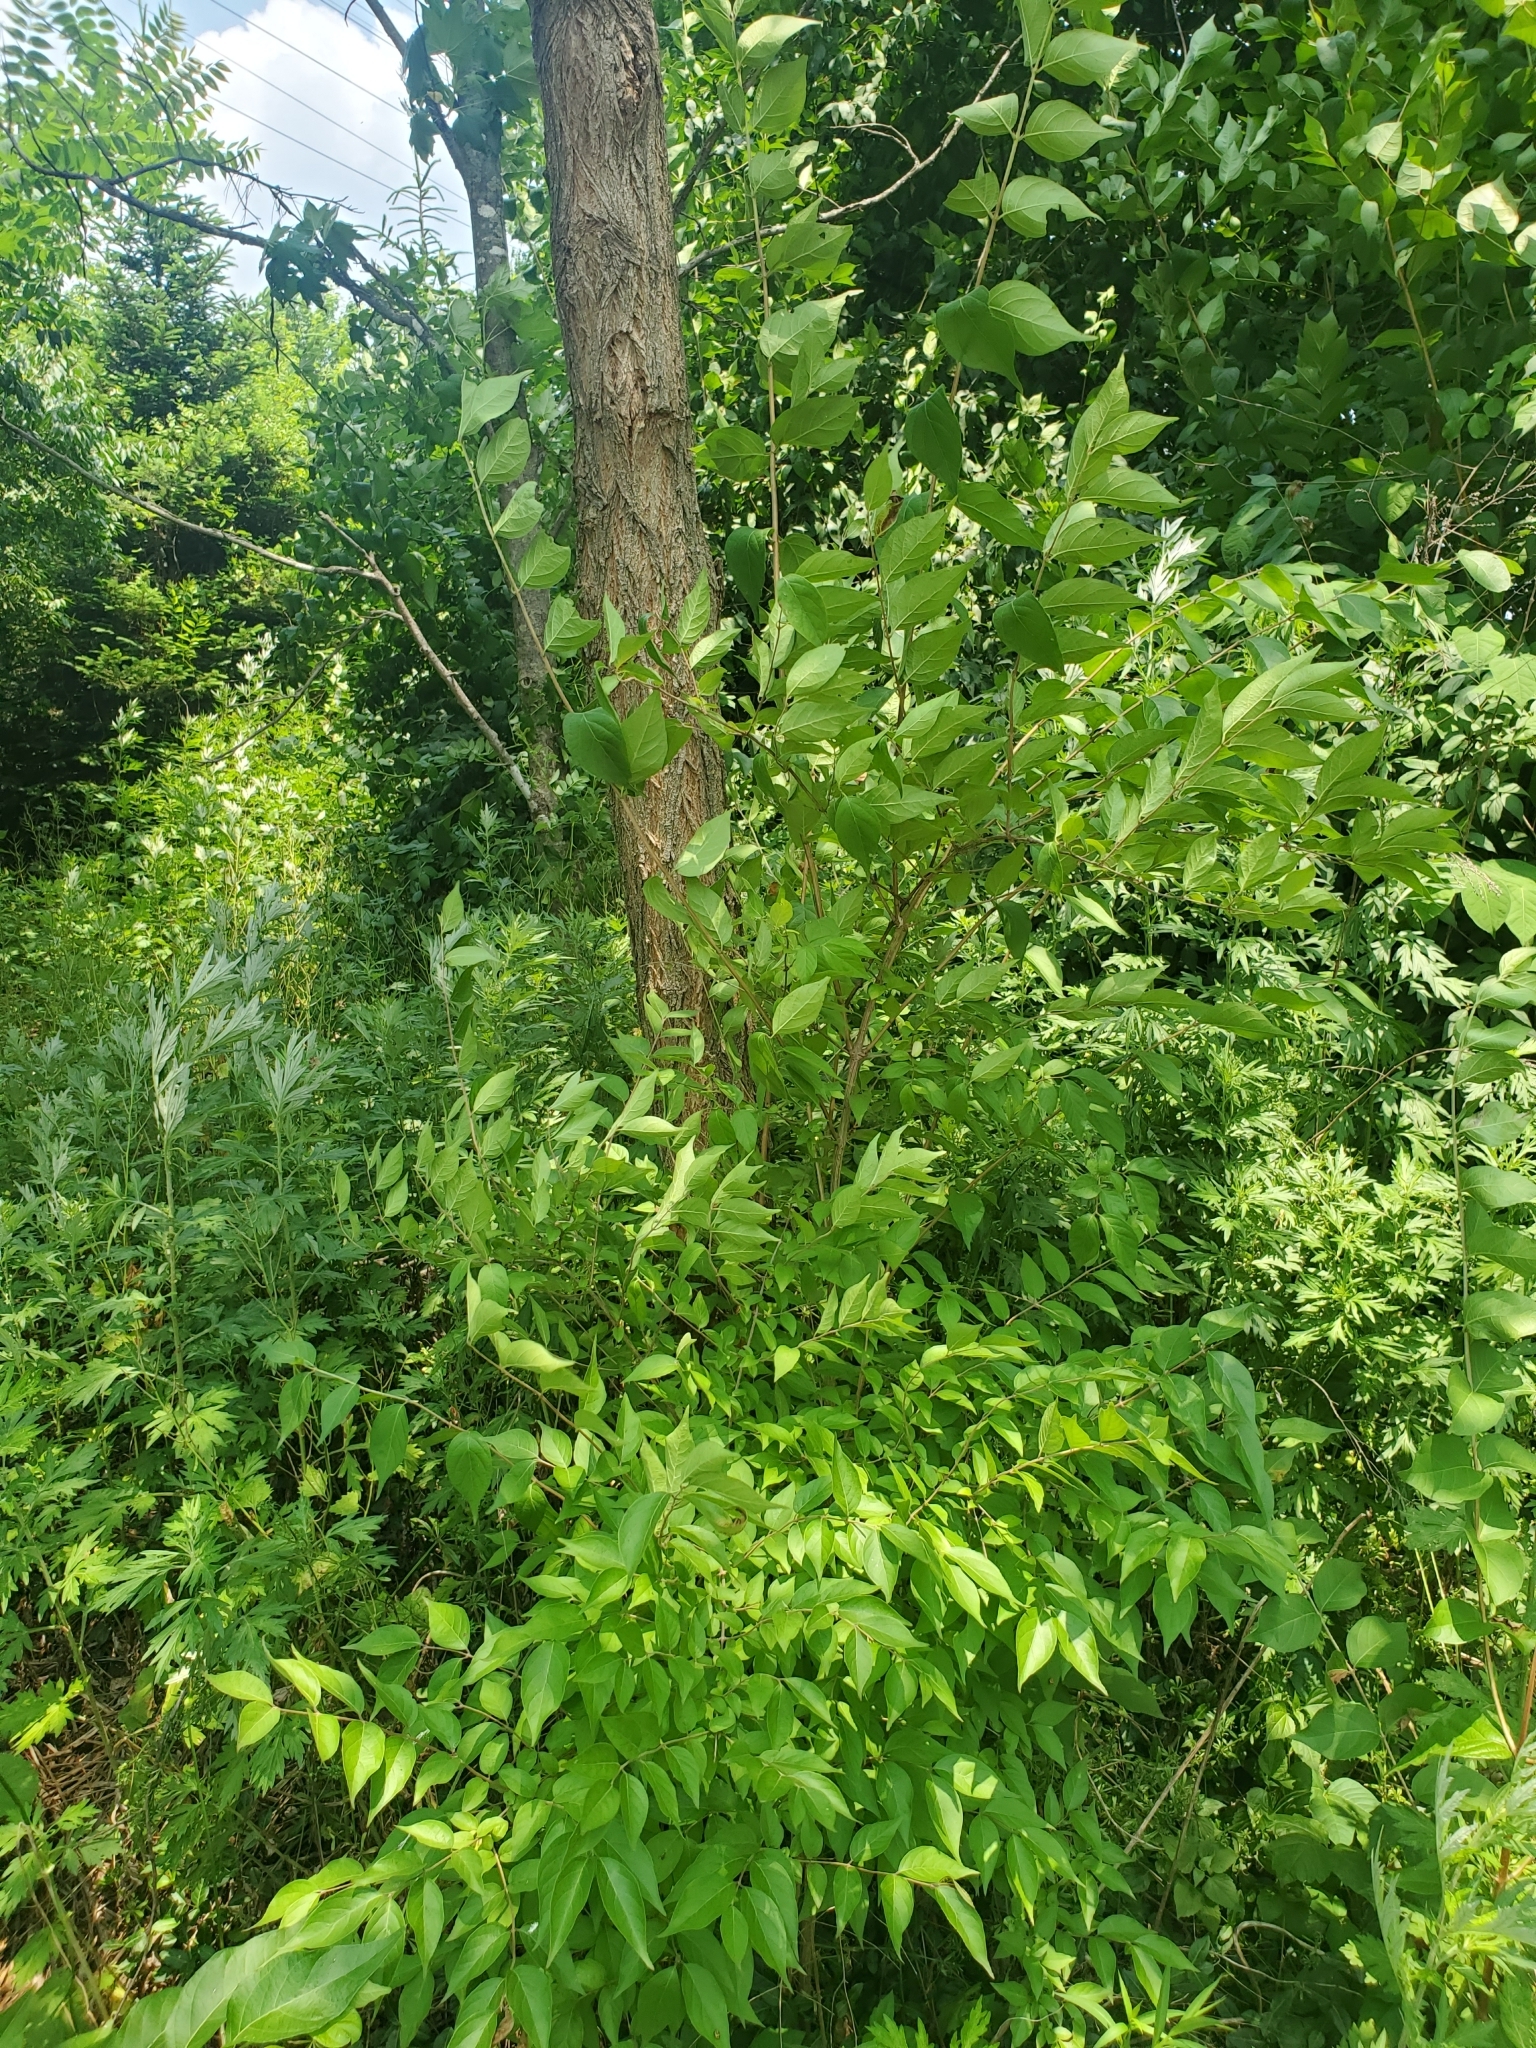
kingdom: Plantae
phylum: Tracheophyta
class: Magnoliopsida
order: Dipsacales
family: Caprifoliaceae
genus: Lonicera
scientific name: Lonicera maackii
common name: Amur honeysuckle
